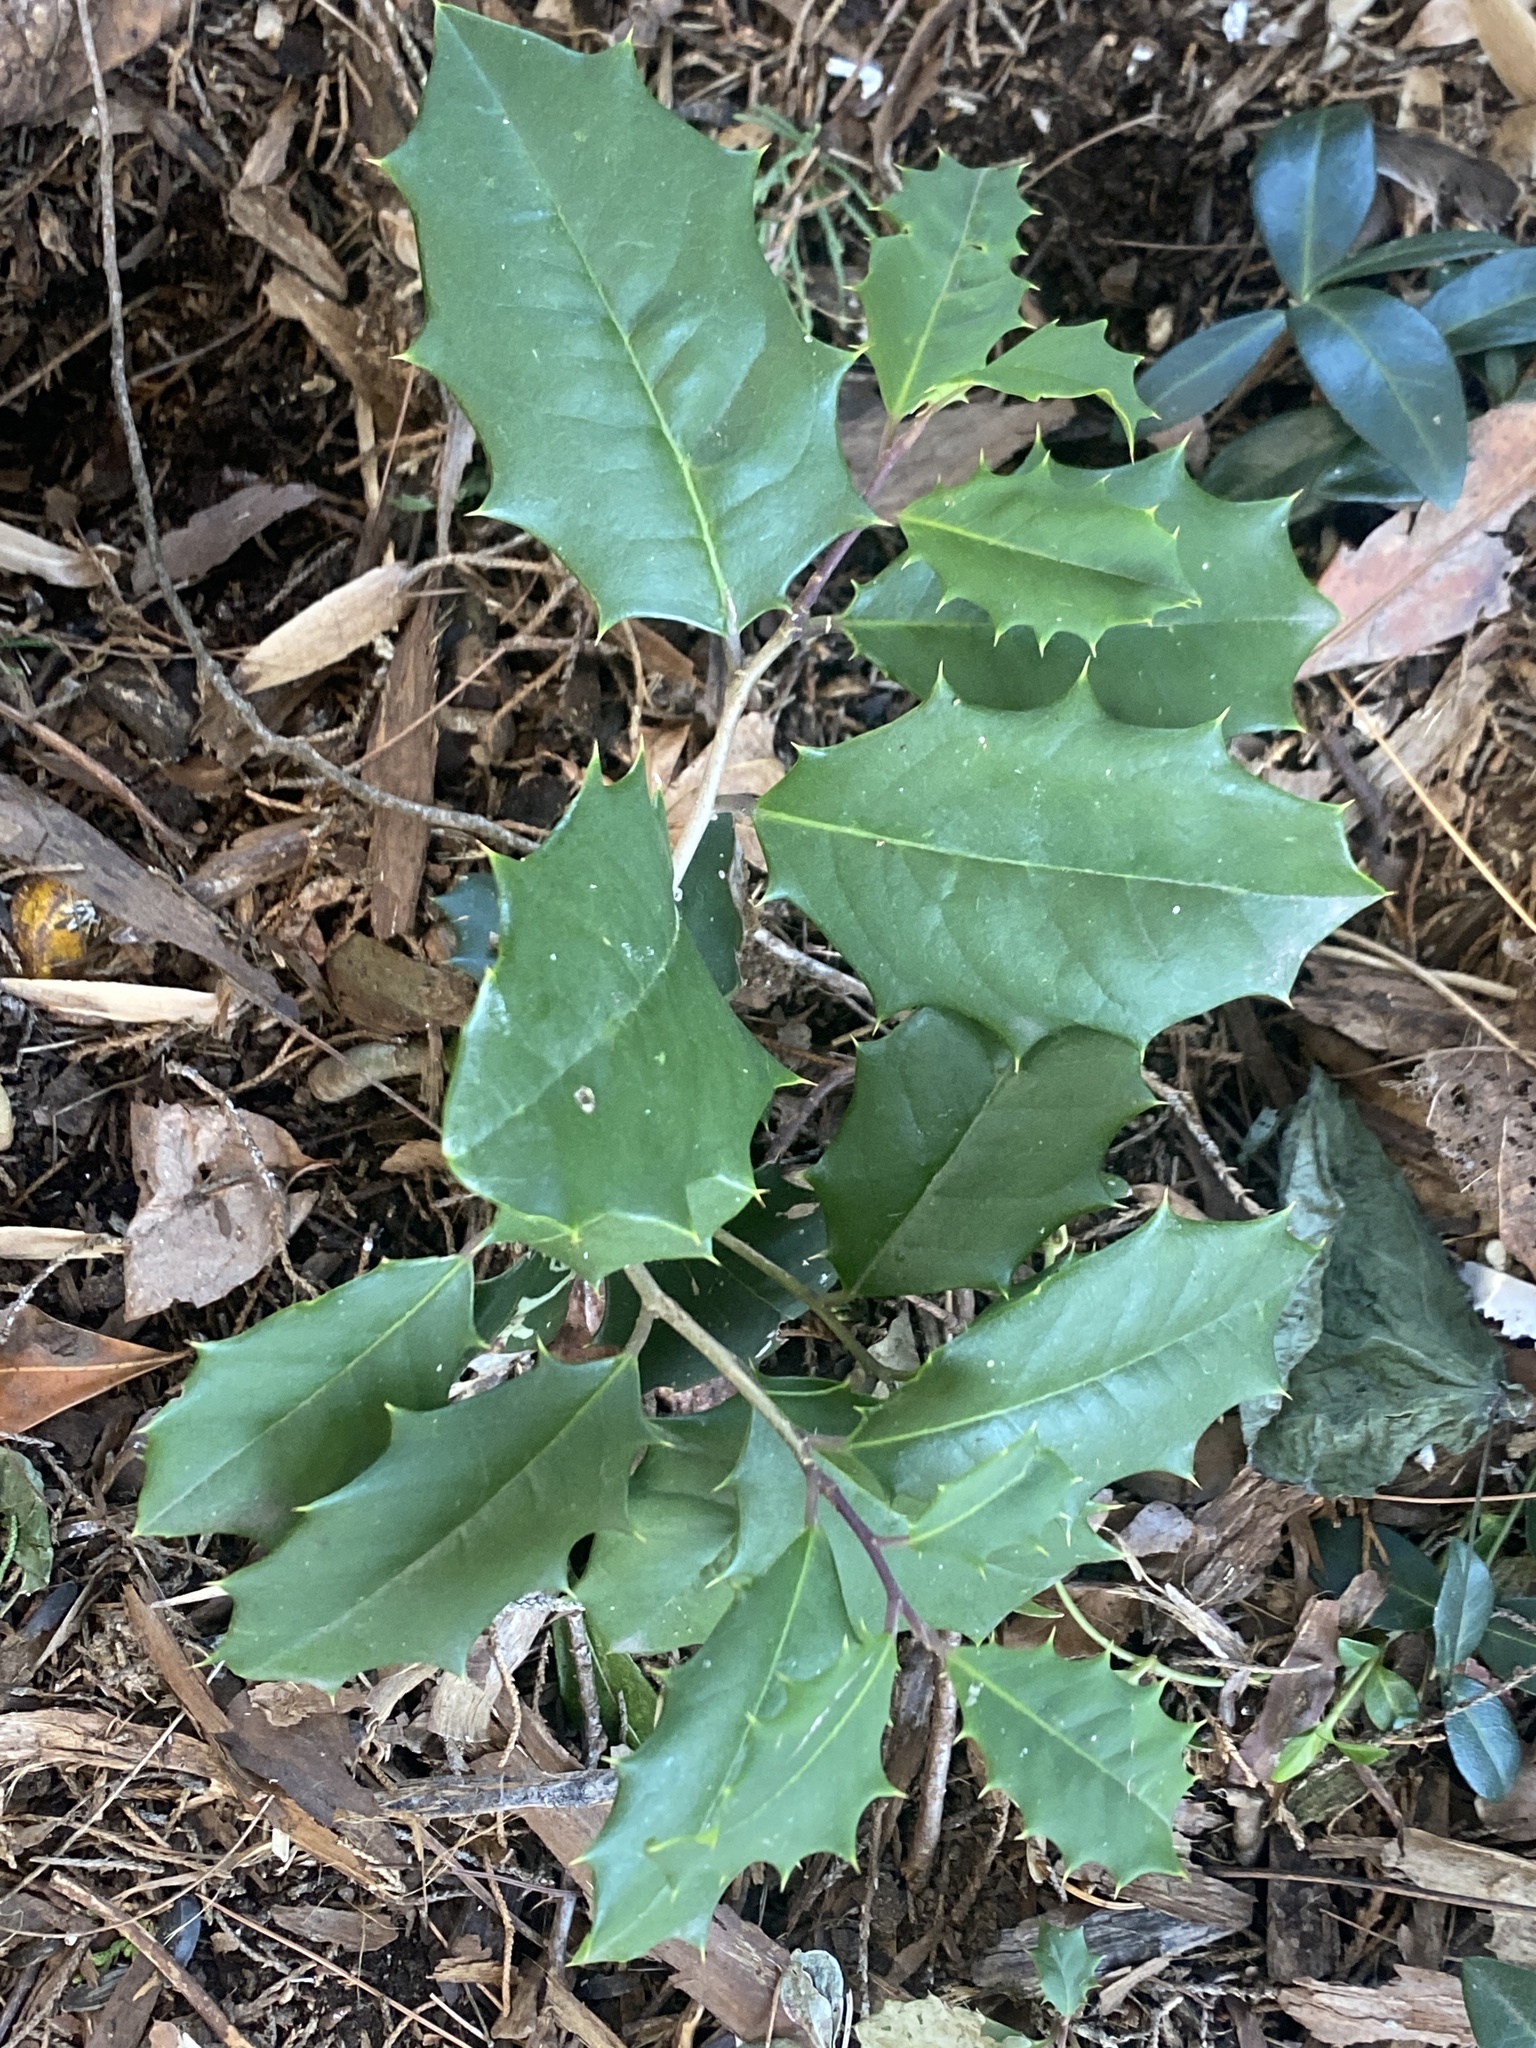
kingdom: Plantae
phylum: Tracheophyta
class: Magnoliopsida
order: Aquifoliales
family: Aquifoliaceae
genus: Ilex
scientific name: Ilex opaca
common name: American holly
